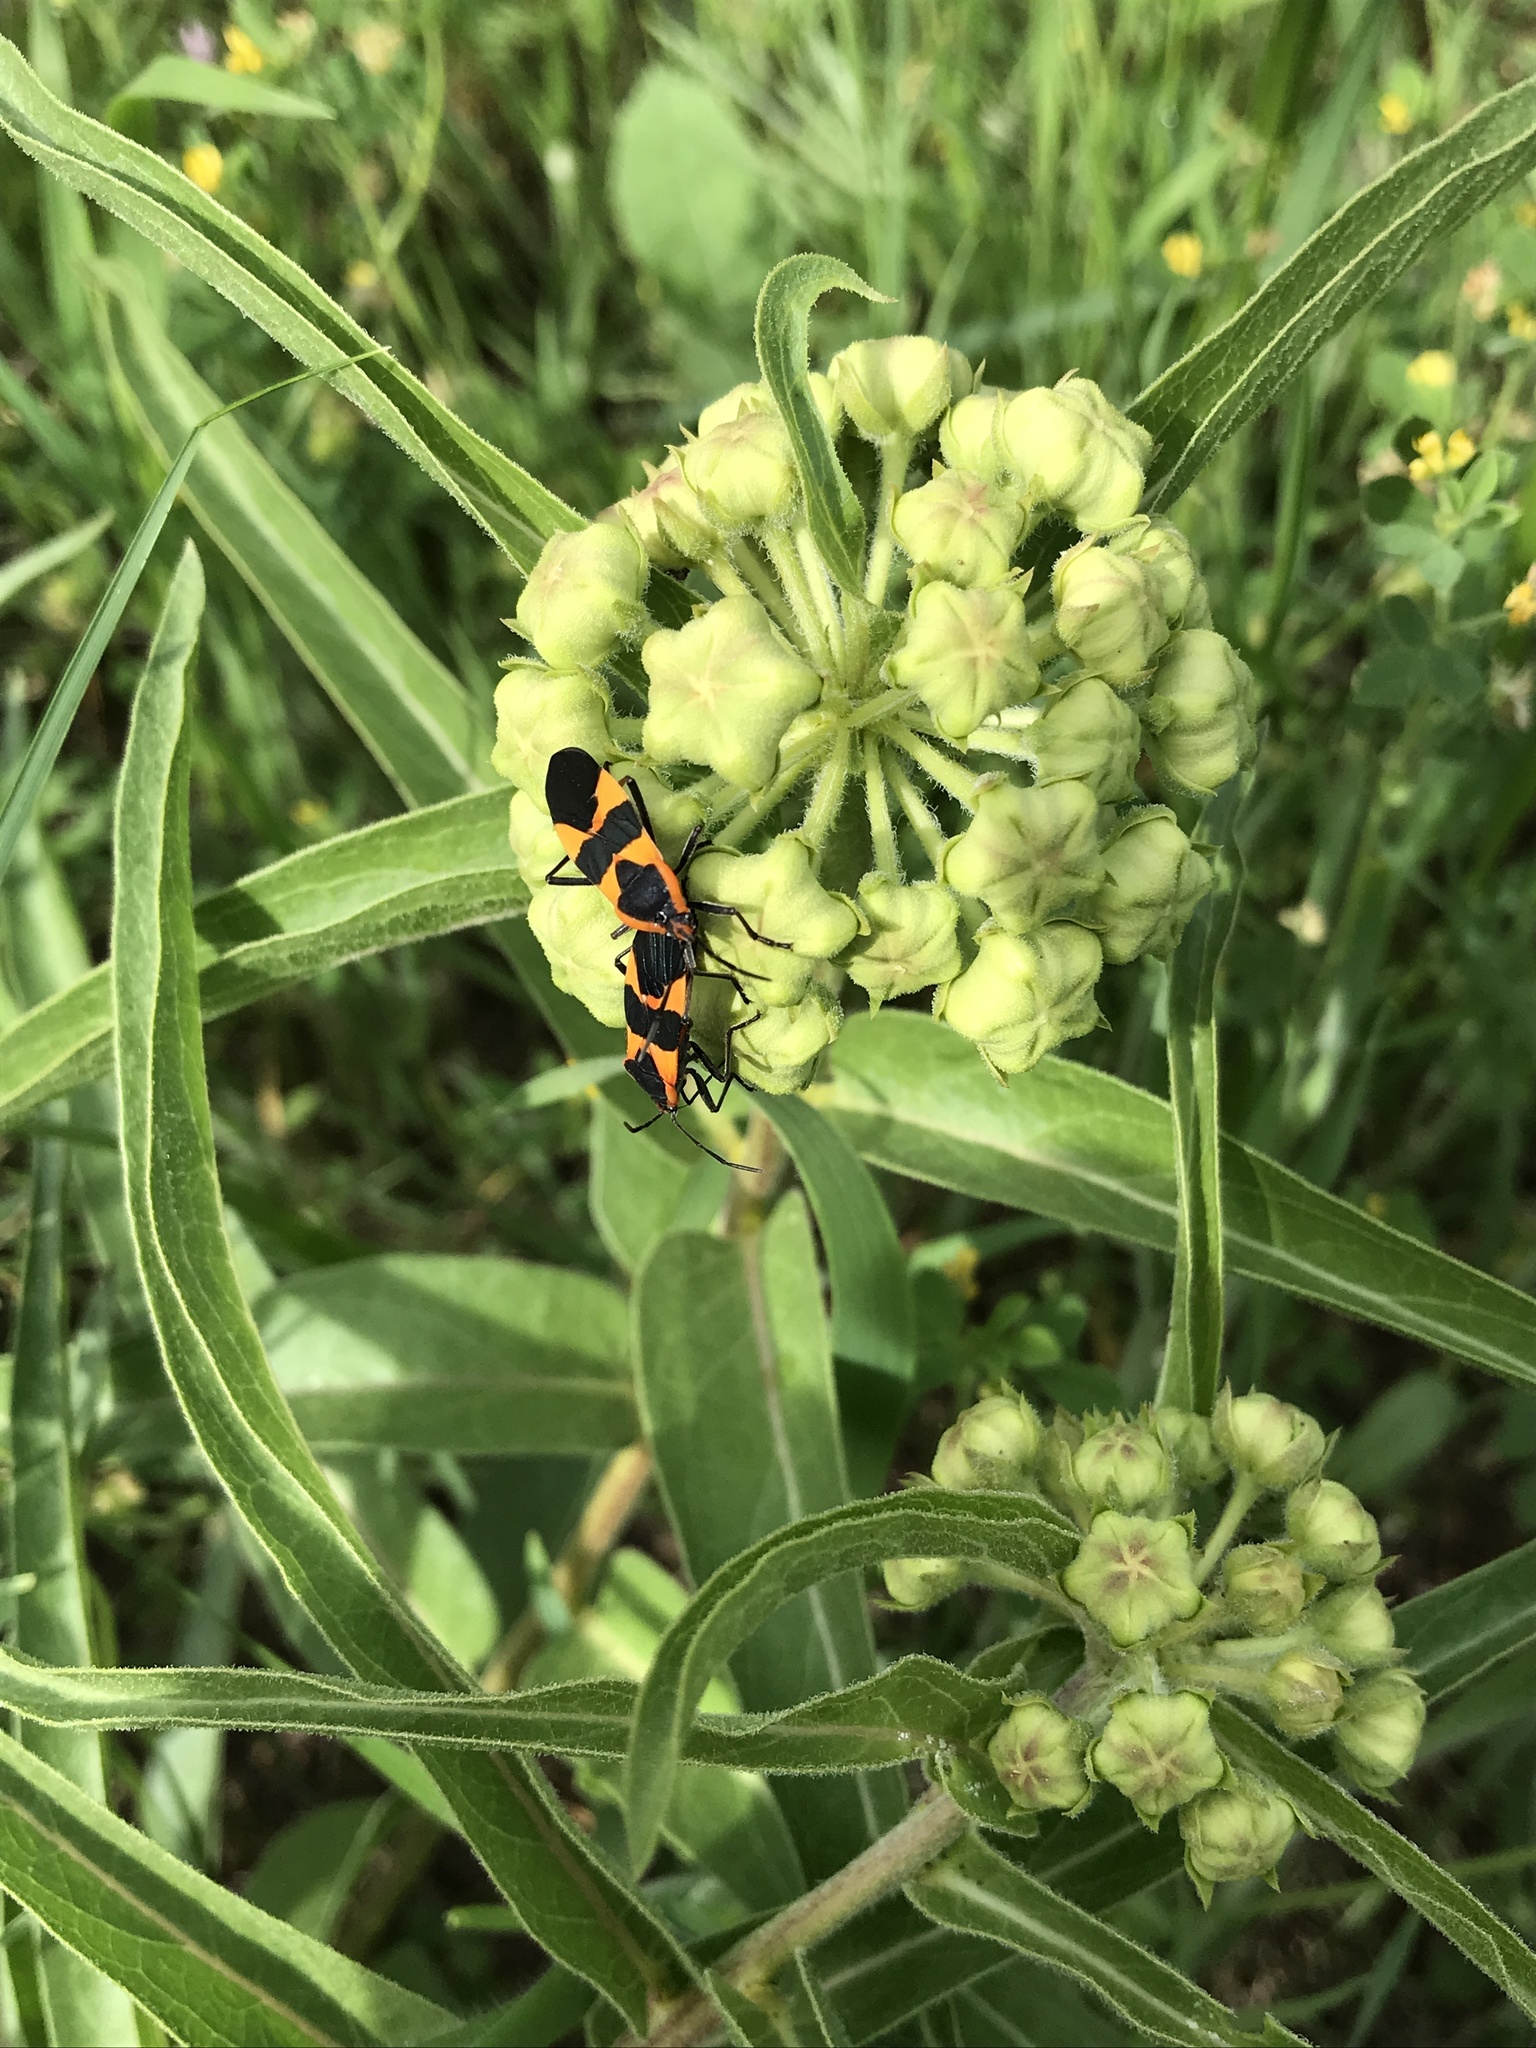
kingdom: Animalia
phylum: Arthropoda
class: Insecta
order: Hemiptera
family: Lygaeidae
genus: Oncopeltus
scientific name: Oncopeltus fasciatus
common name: Large milkweed bug
